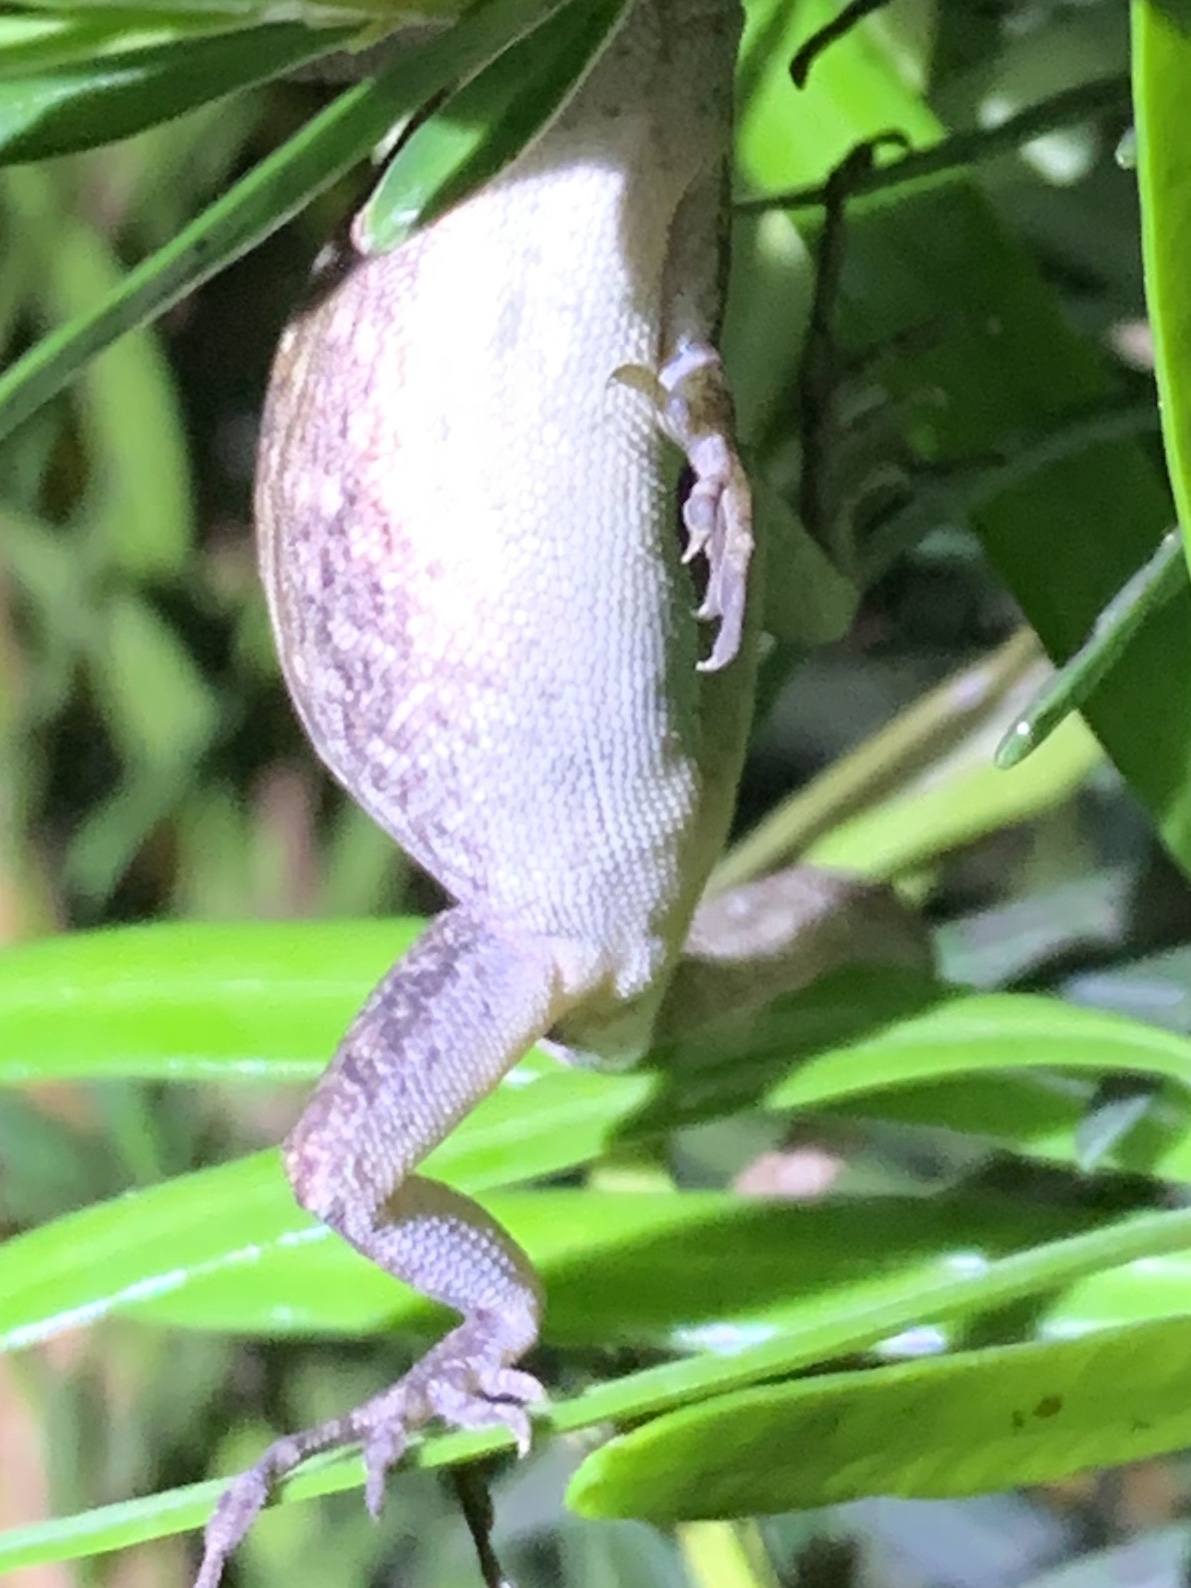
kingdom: Animalia
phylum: Chordata
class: Squamata
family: Dactyloidae
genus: Anolis
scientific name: Anolis sagrei
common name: Brown anole
